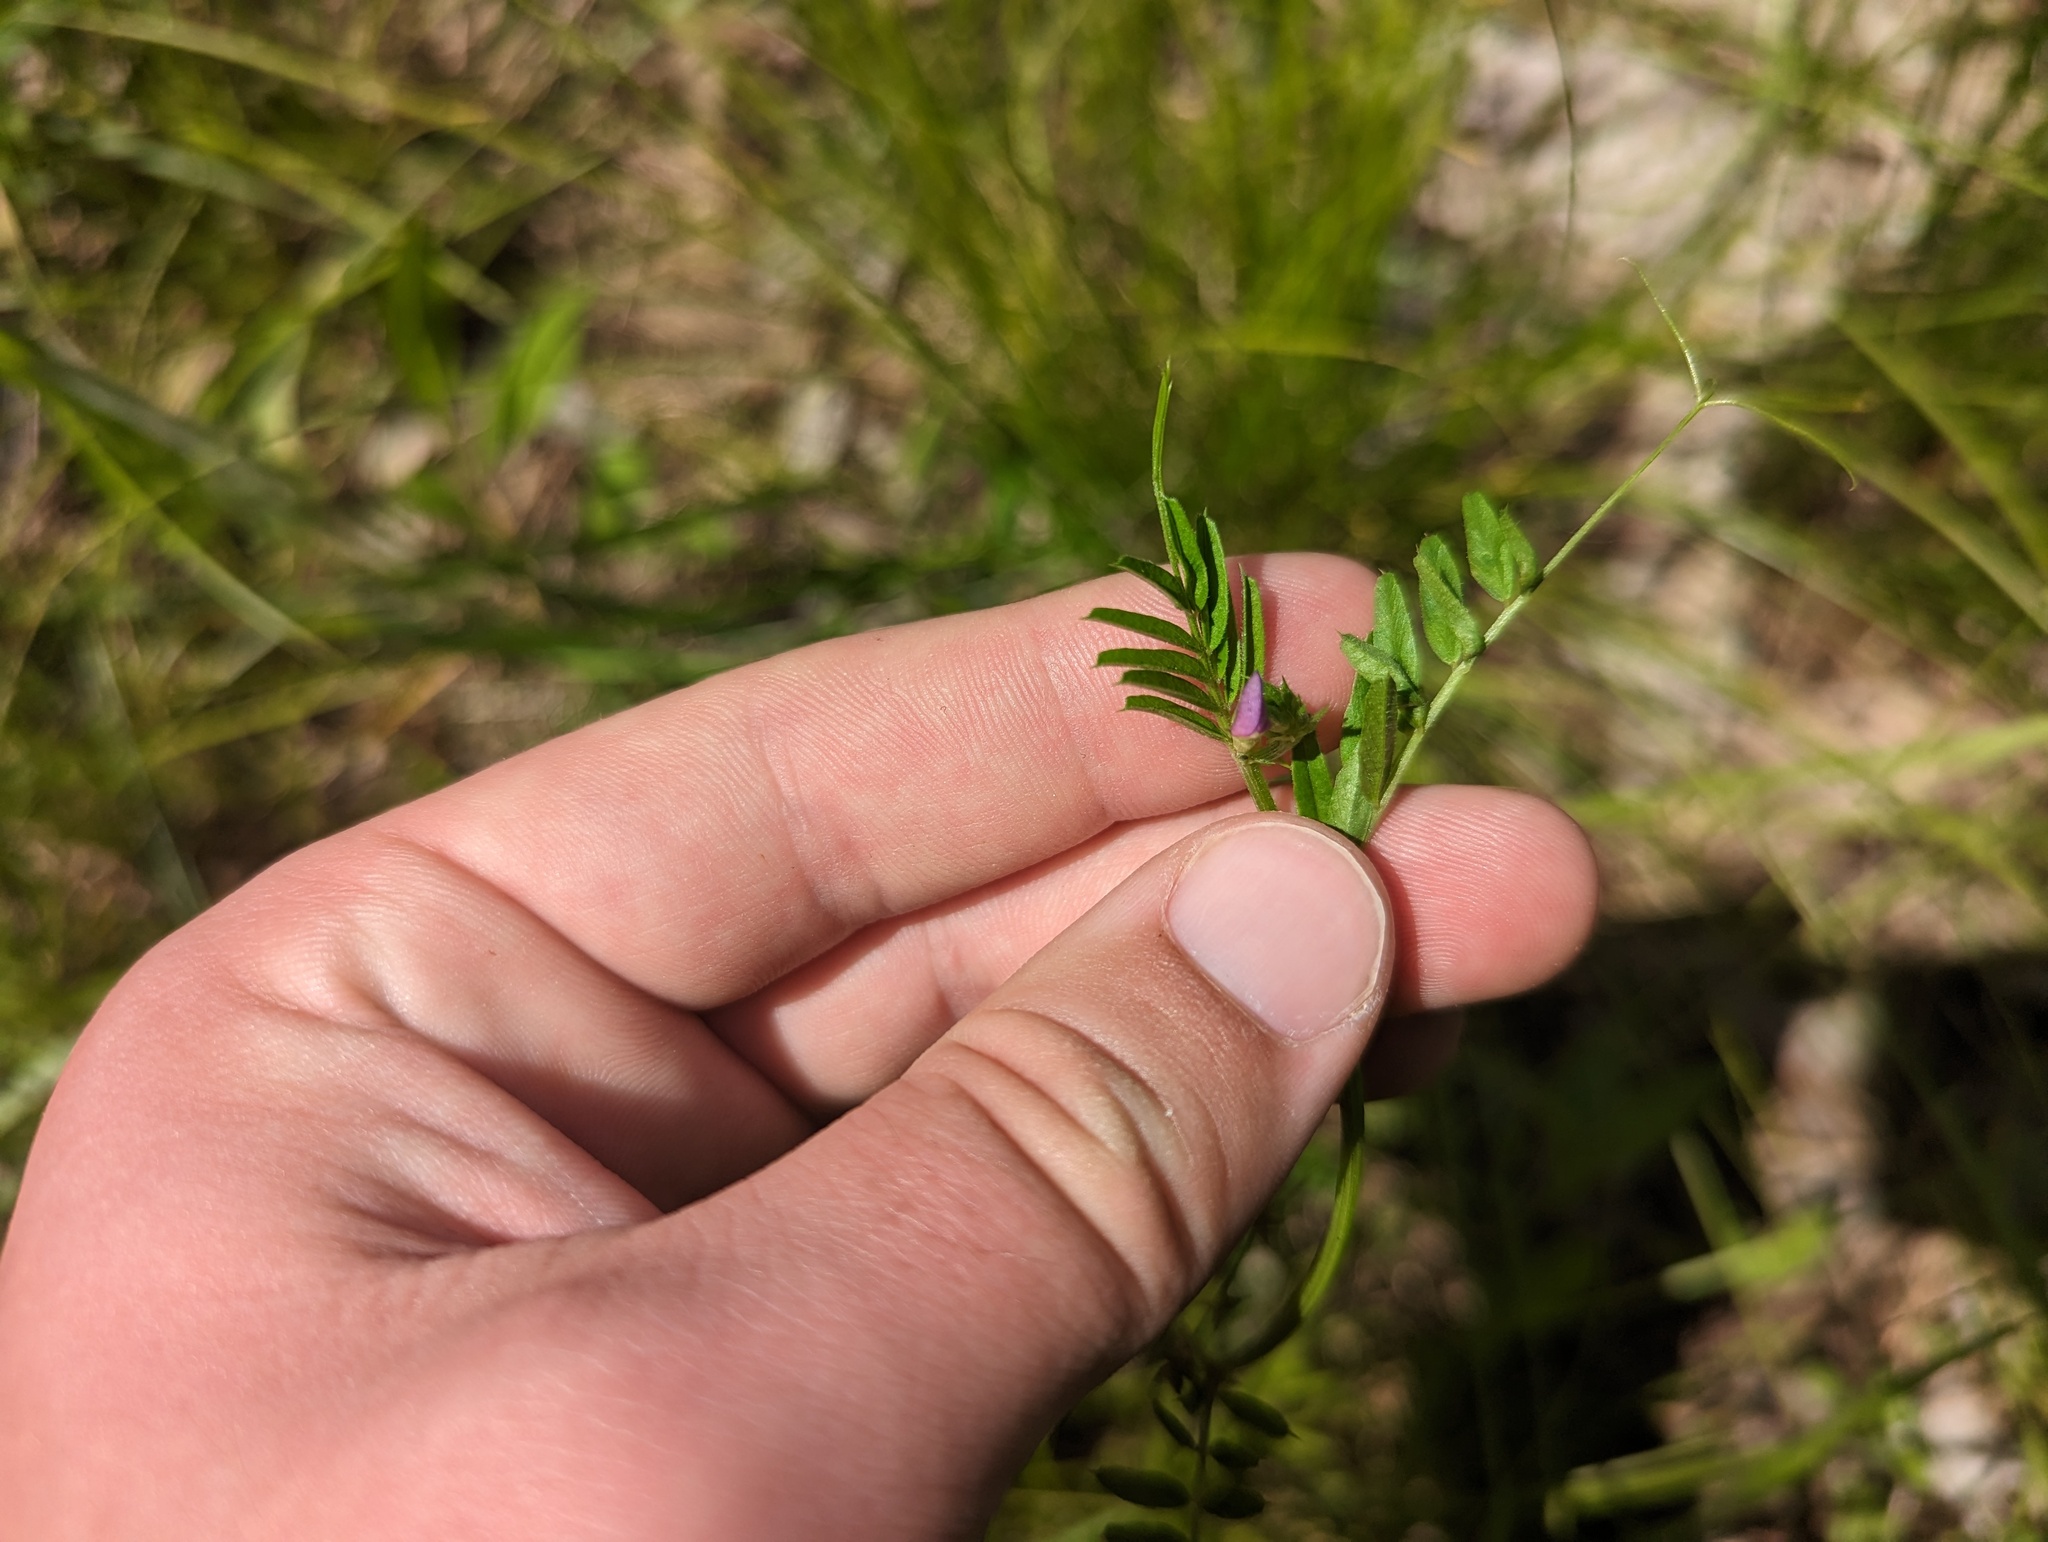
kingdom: Plantae
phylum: Tracheophyta
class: Magnoliopsida
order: Fabales
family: Fabaceae
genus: Vicia
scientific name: Vicia sativa
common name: Garden vetch
